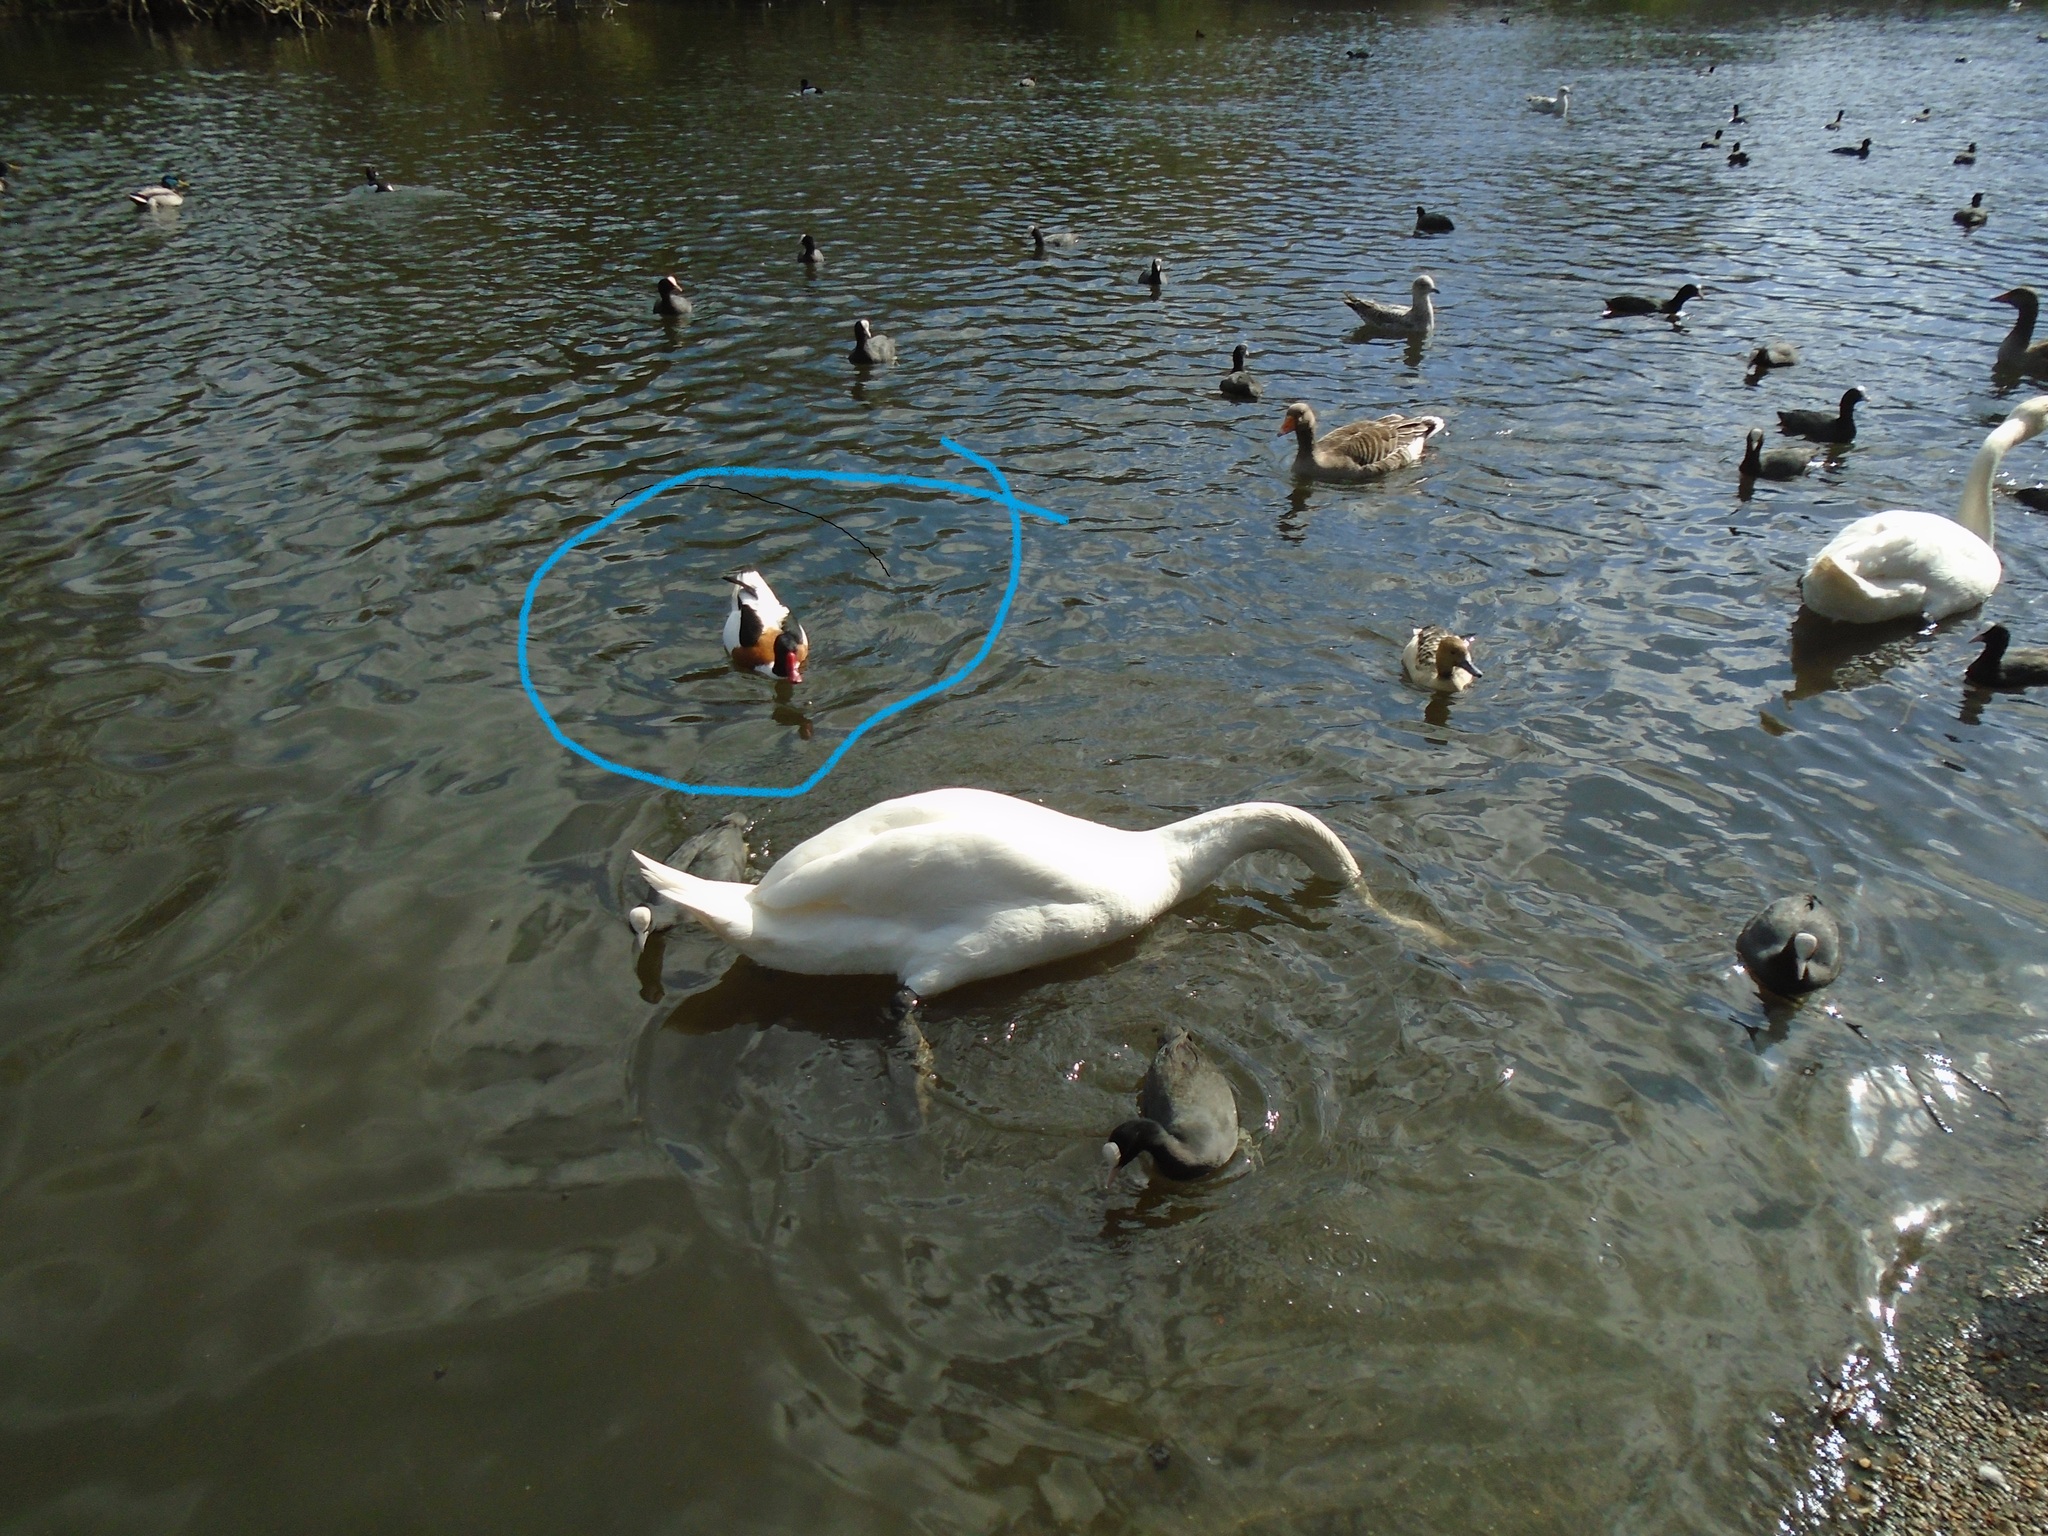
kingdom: Animalia
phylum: Chordata
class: Aves
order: Anseriformes
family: Anatidae
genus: Tadorna
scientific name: Tadorna tadorna
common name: Common shelduck
